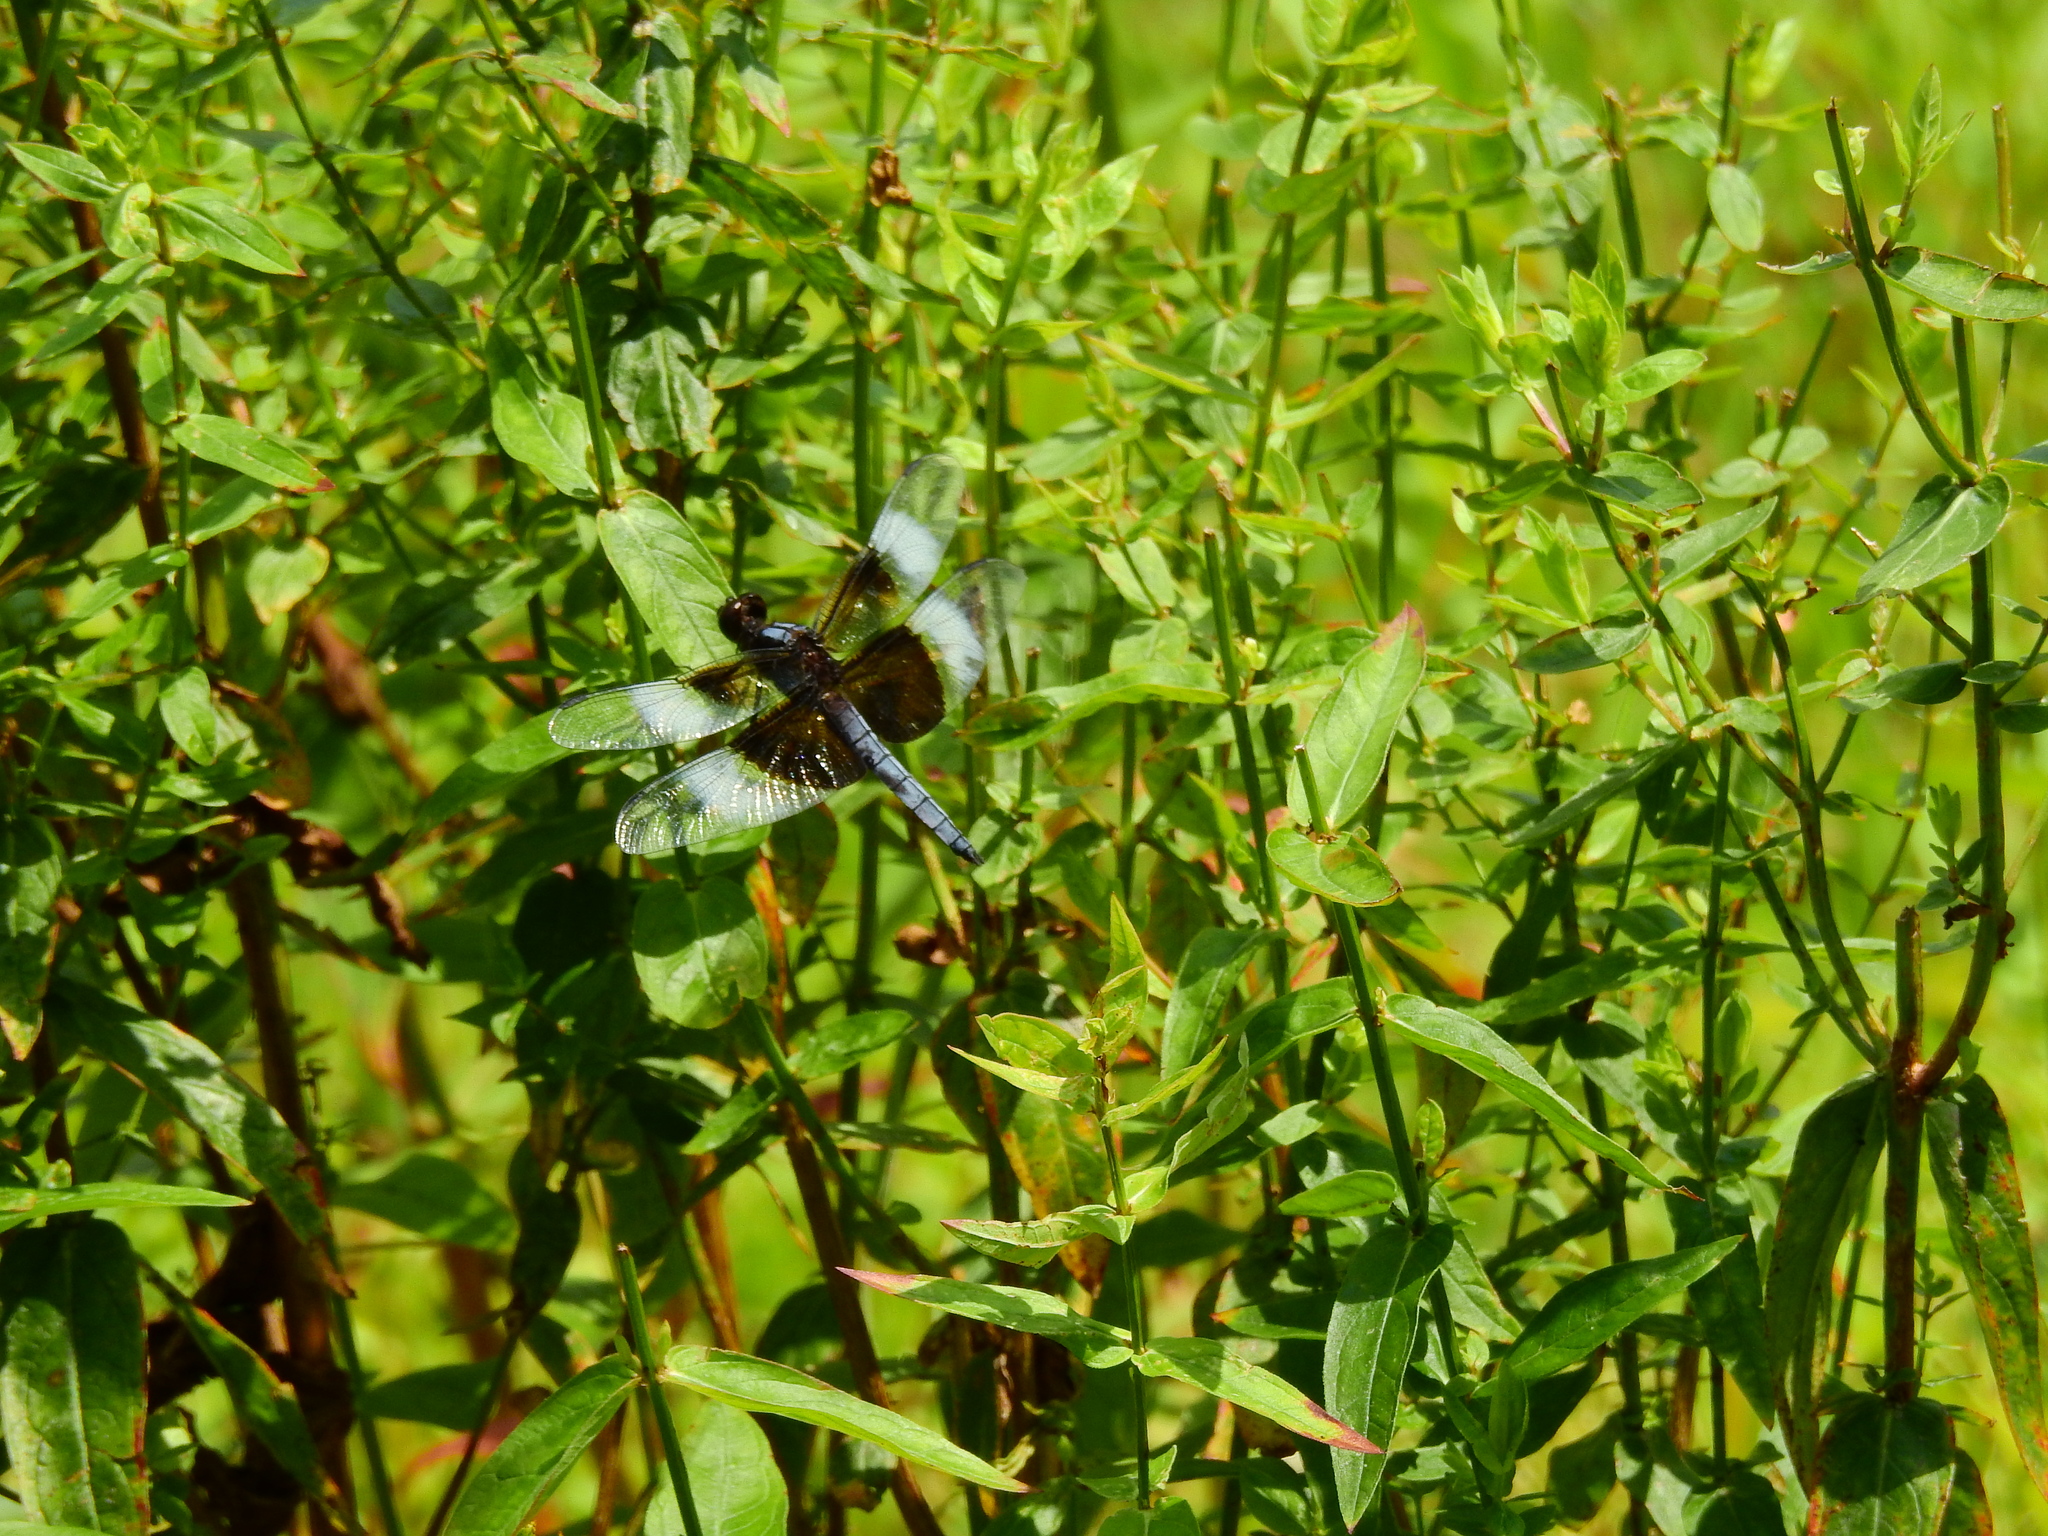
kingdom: Animalia
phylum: Arthropoda
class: Insecta
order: Odonata
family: Libellulidae
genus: Libellula
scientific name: Libellula luctuosa
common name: Widow skimmer
